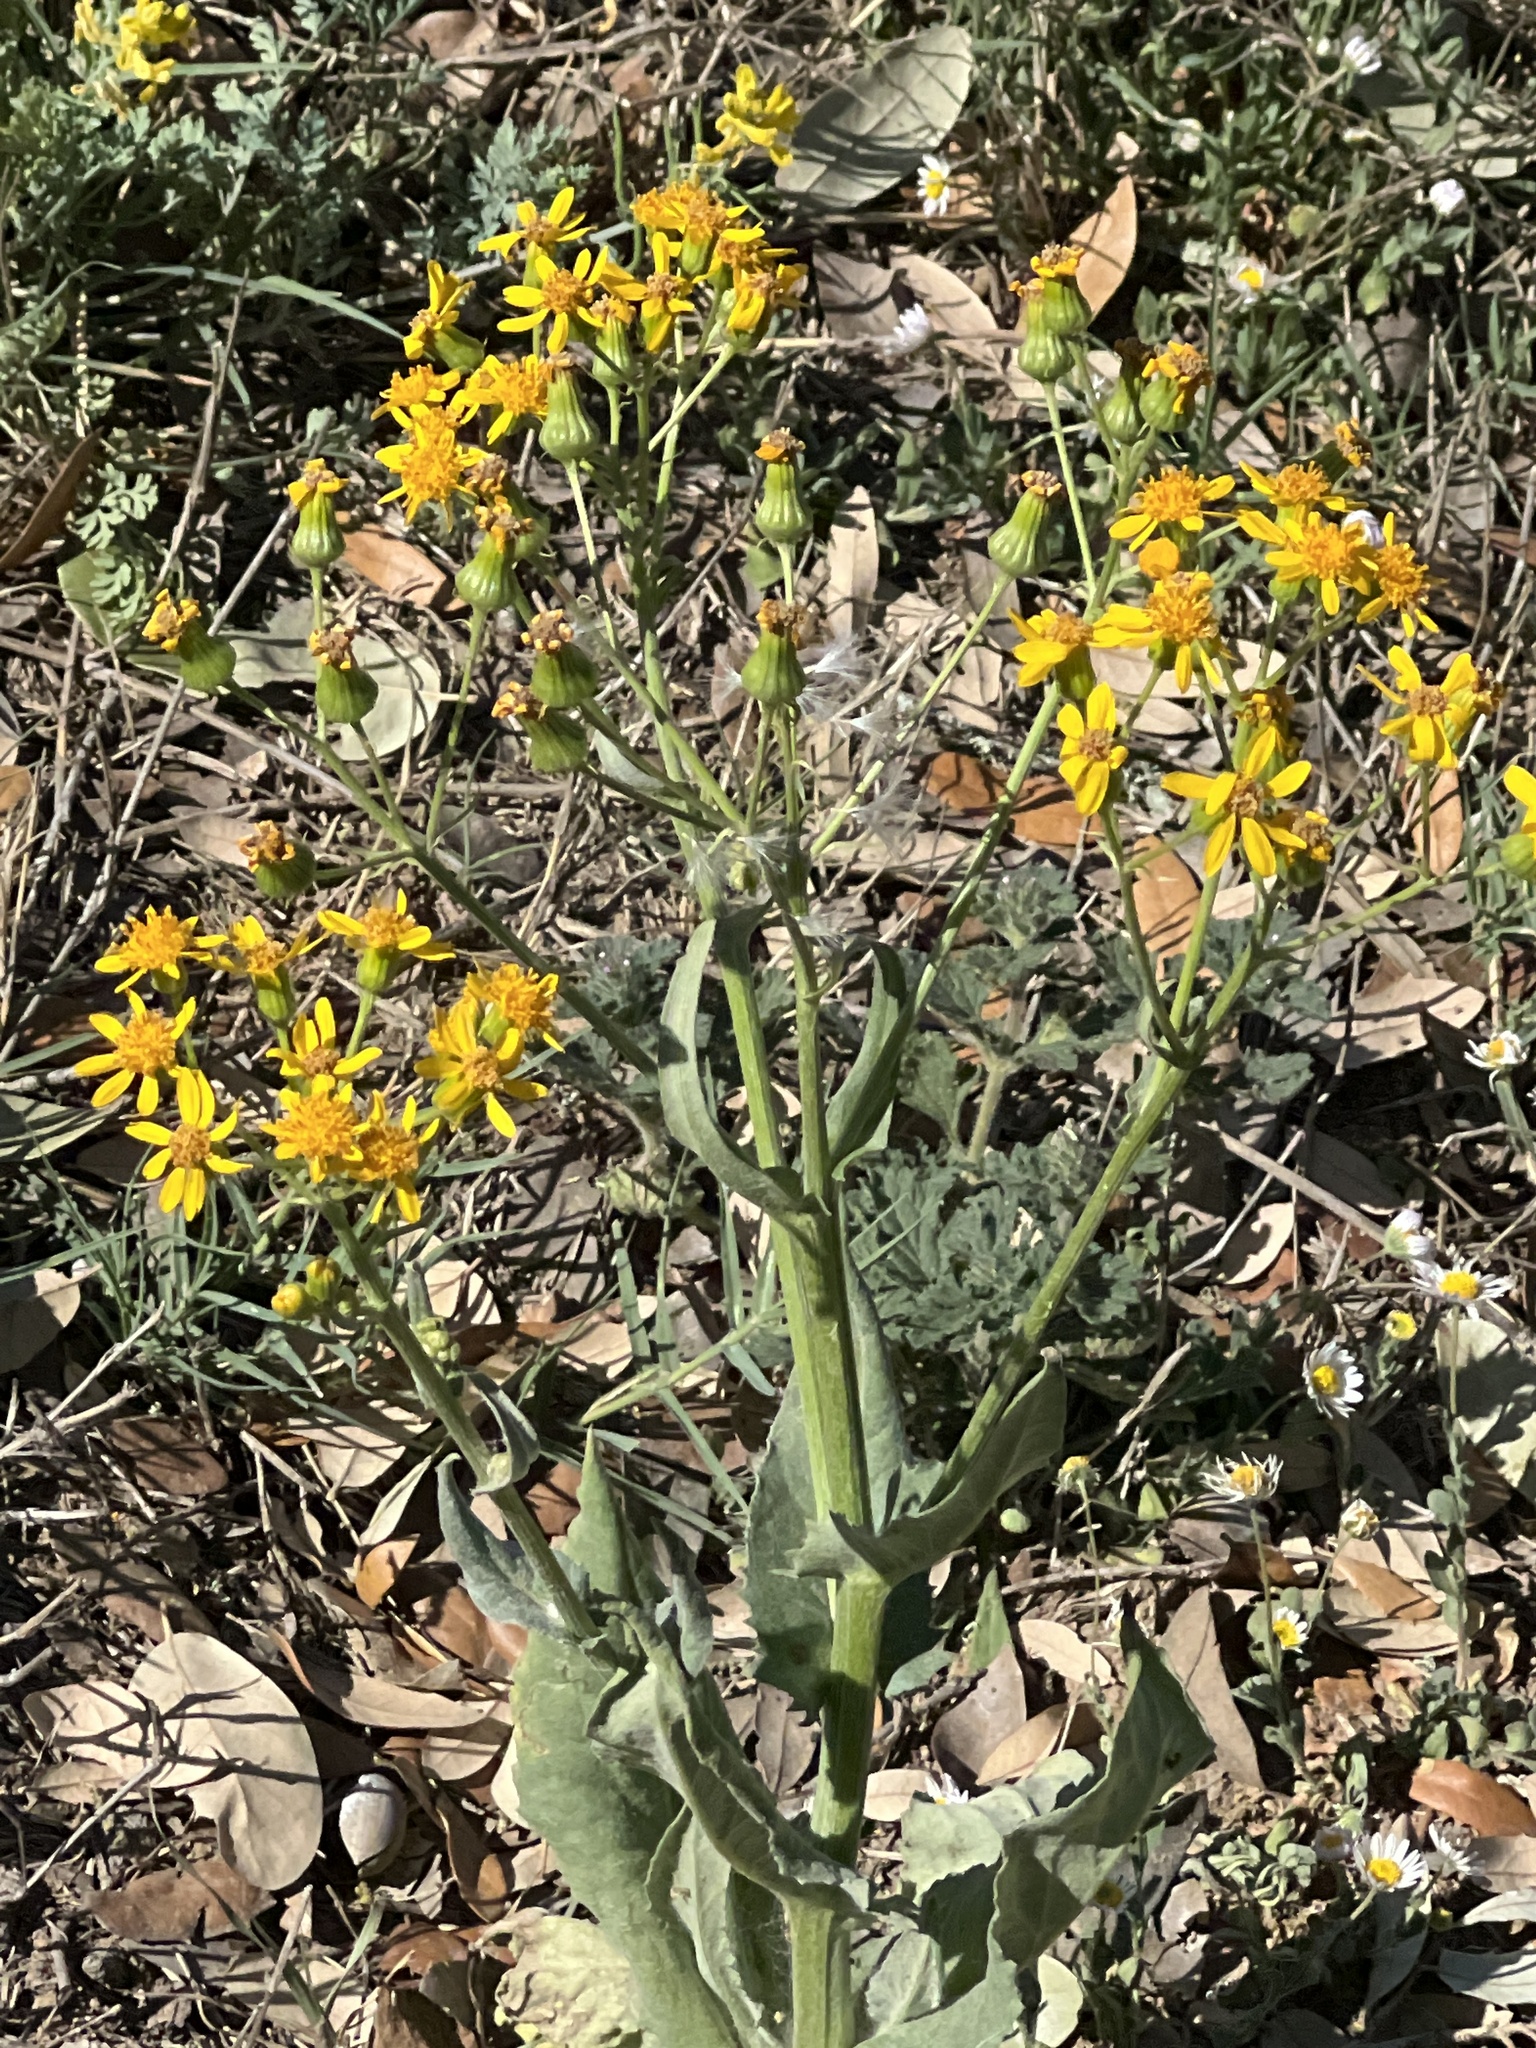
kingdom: Plantae
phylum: Tracheophyta
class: Magnoliopsida
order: Asterales
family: Asteraceae
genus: Senecio
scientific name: Senecio ampullaceus
